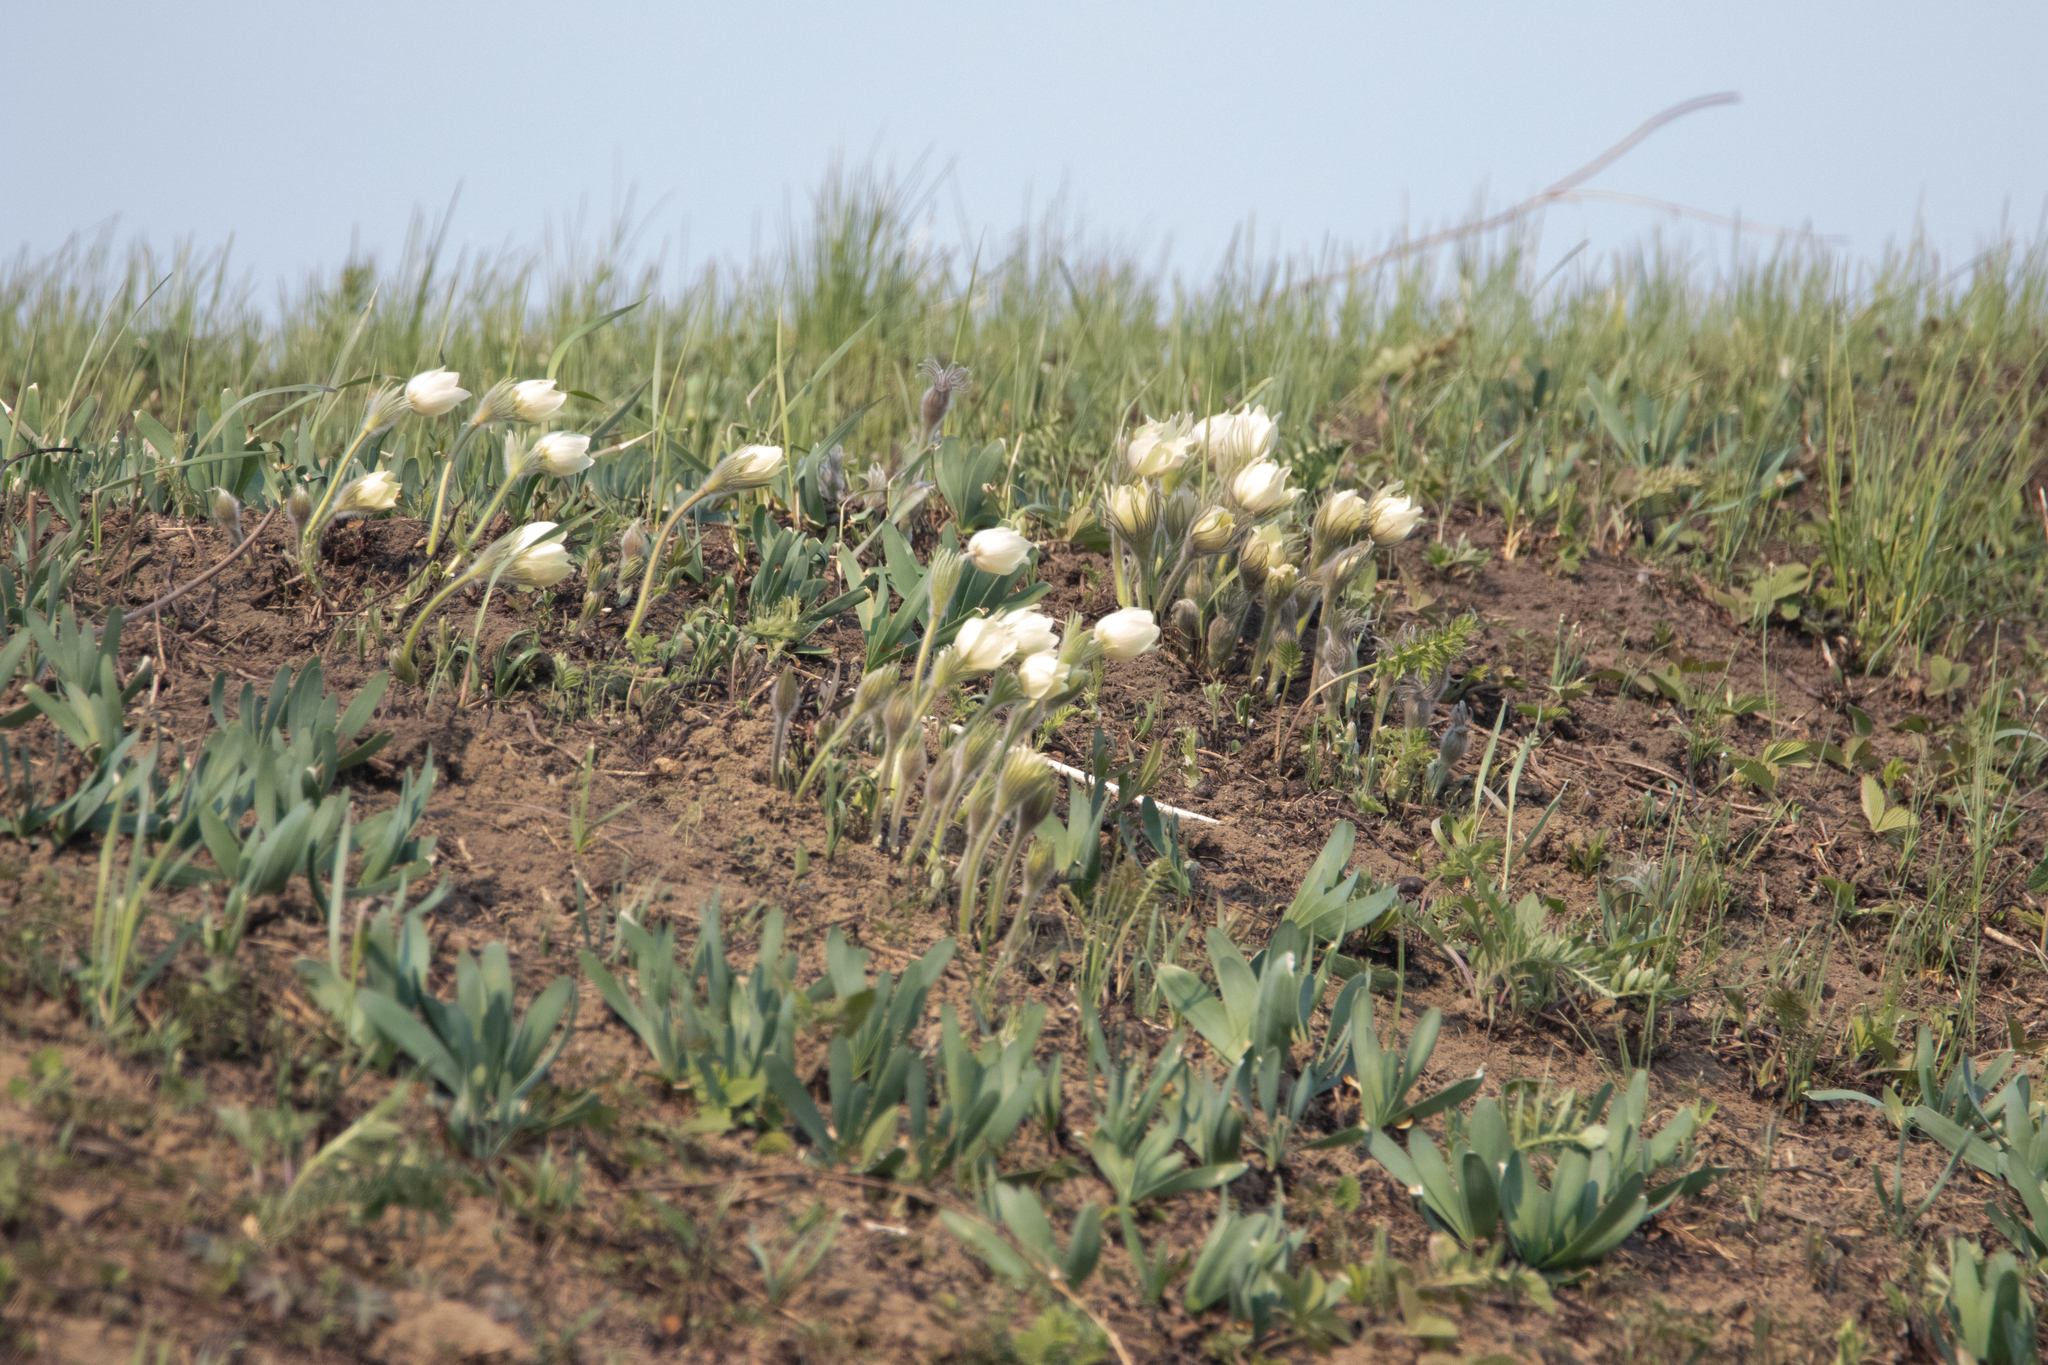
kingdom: Plantae
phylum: Tracheophyta
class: Magnoliopsida
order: Ranunculales
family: Ranunculaceae
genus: Pulsatilla
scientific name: Pulsatilla patens
